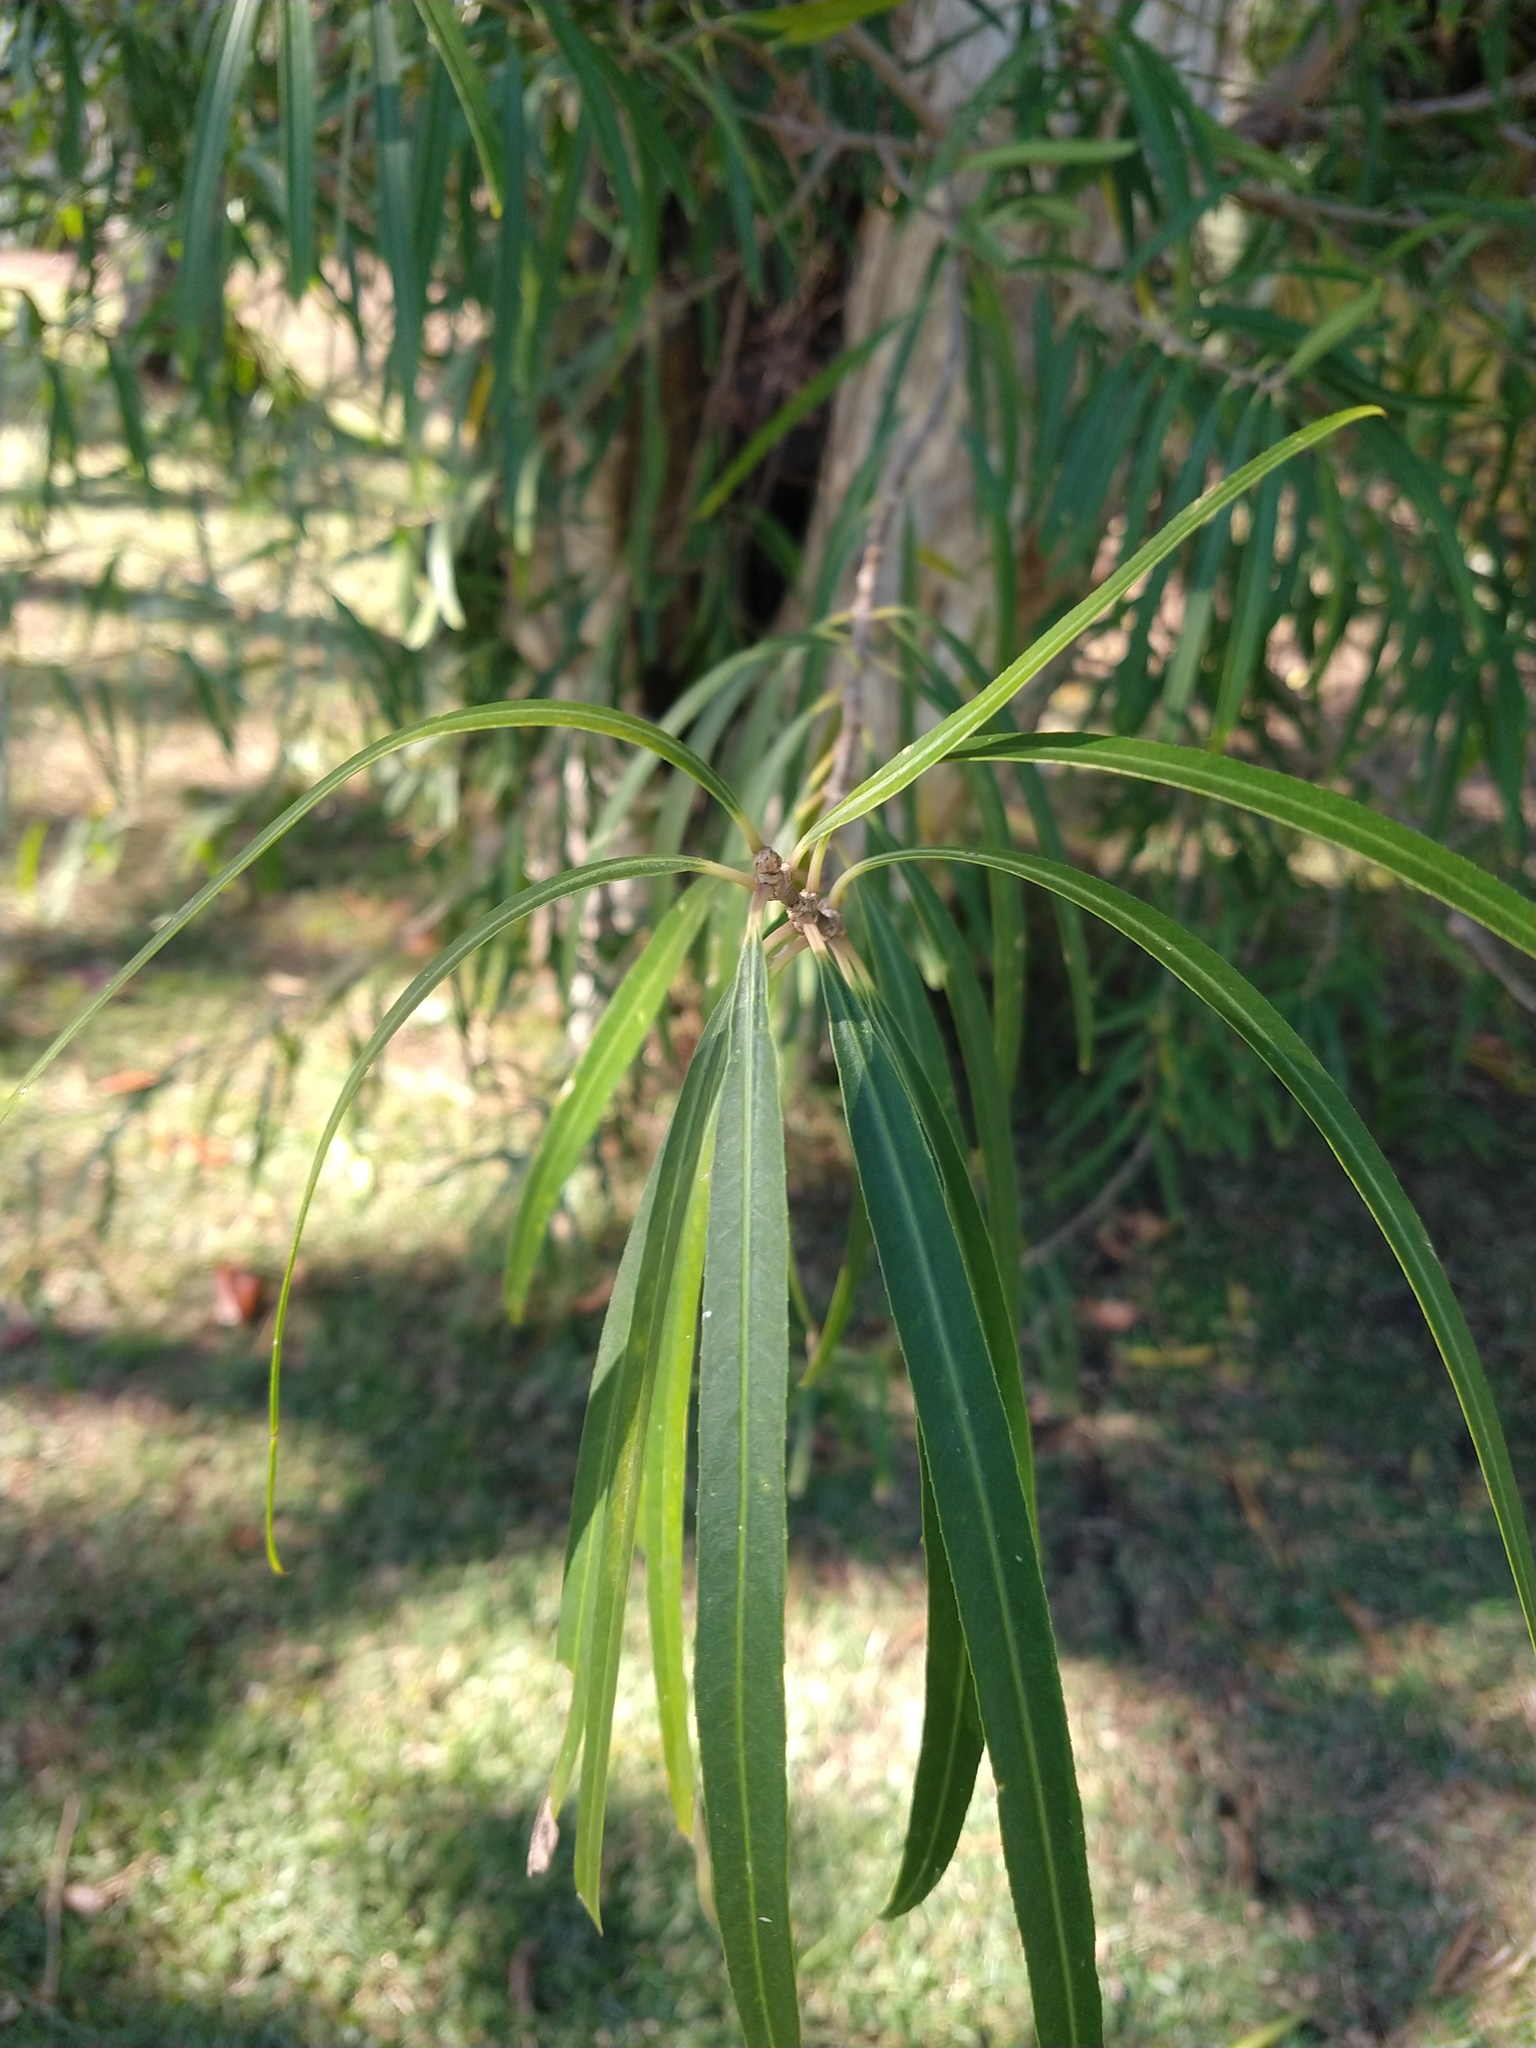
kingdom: Plantae
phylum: Tracheophyta
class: Magnoliopsida
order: Malpighiales
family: Euphorbiaceae
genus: Sapium
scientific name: Sapium haematospermum
